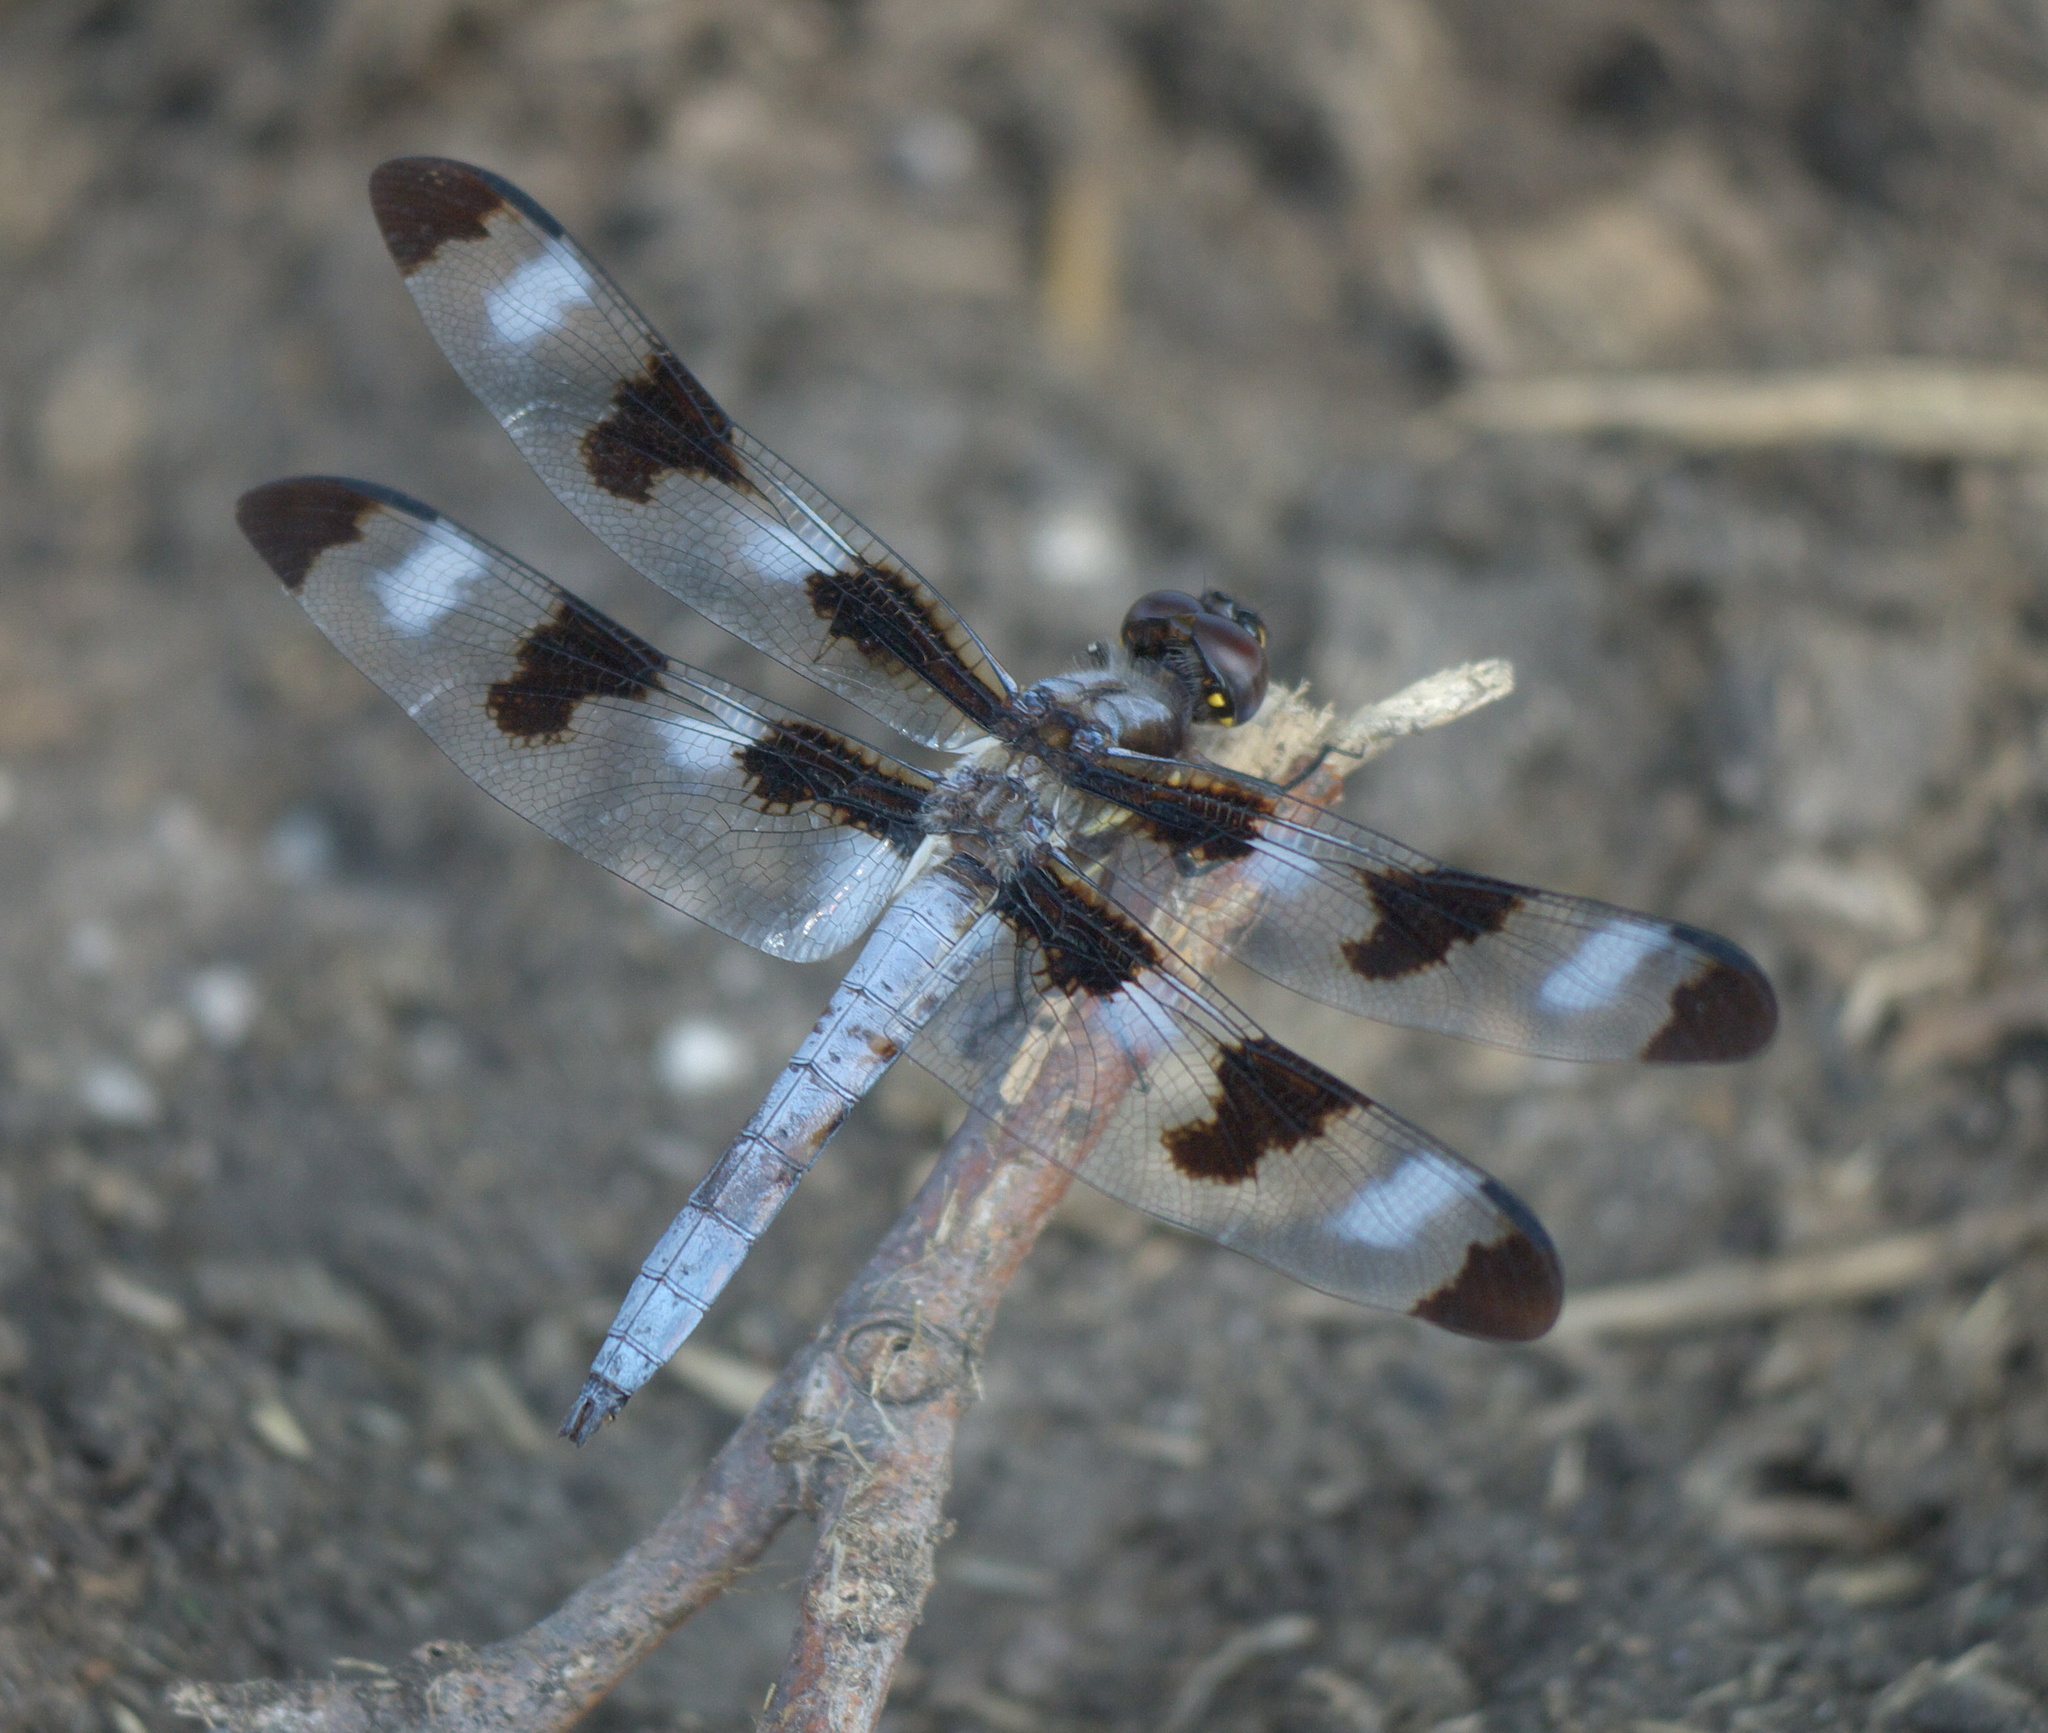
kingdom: Animalia
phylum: Arthropoda
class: Insecta
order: Odonata
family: Libellulidae
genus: Libellula
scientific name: Libellula pulchella
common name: Twelve-spotted skimmer
